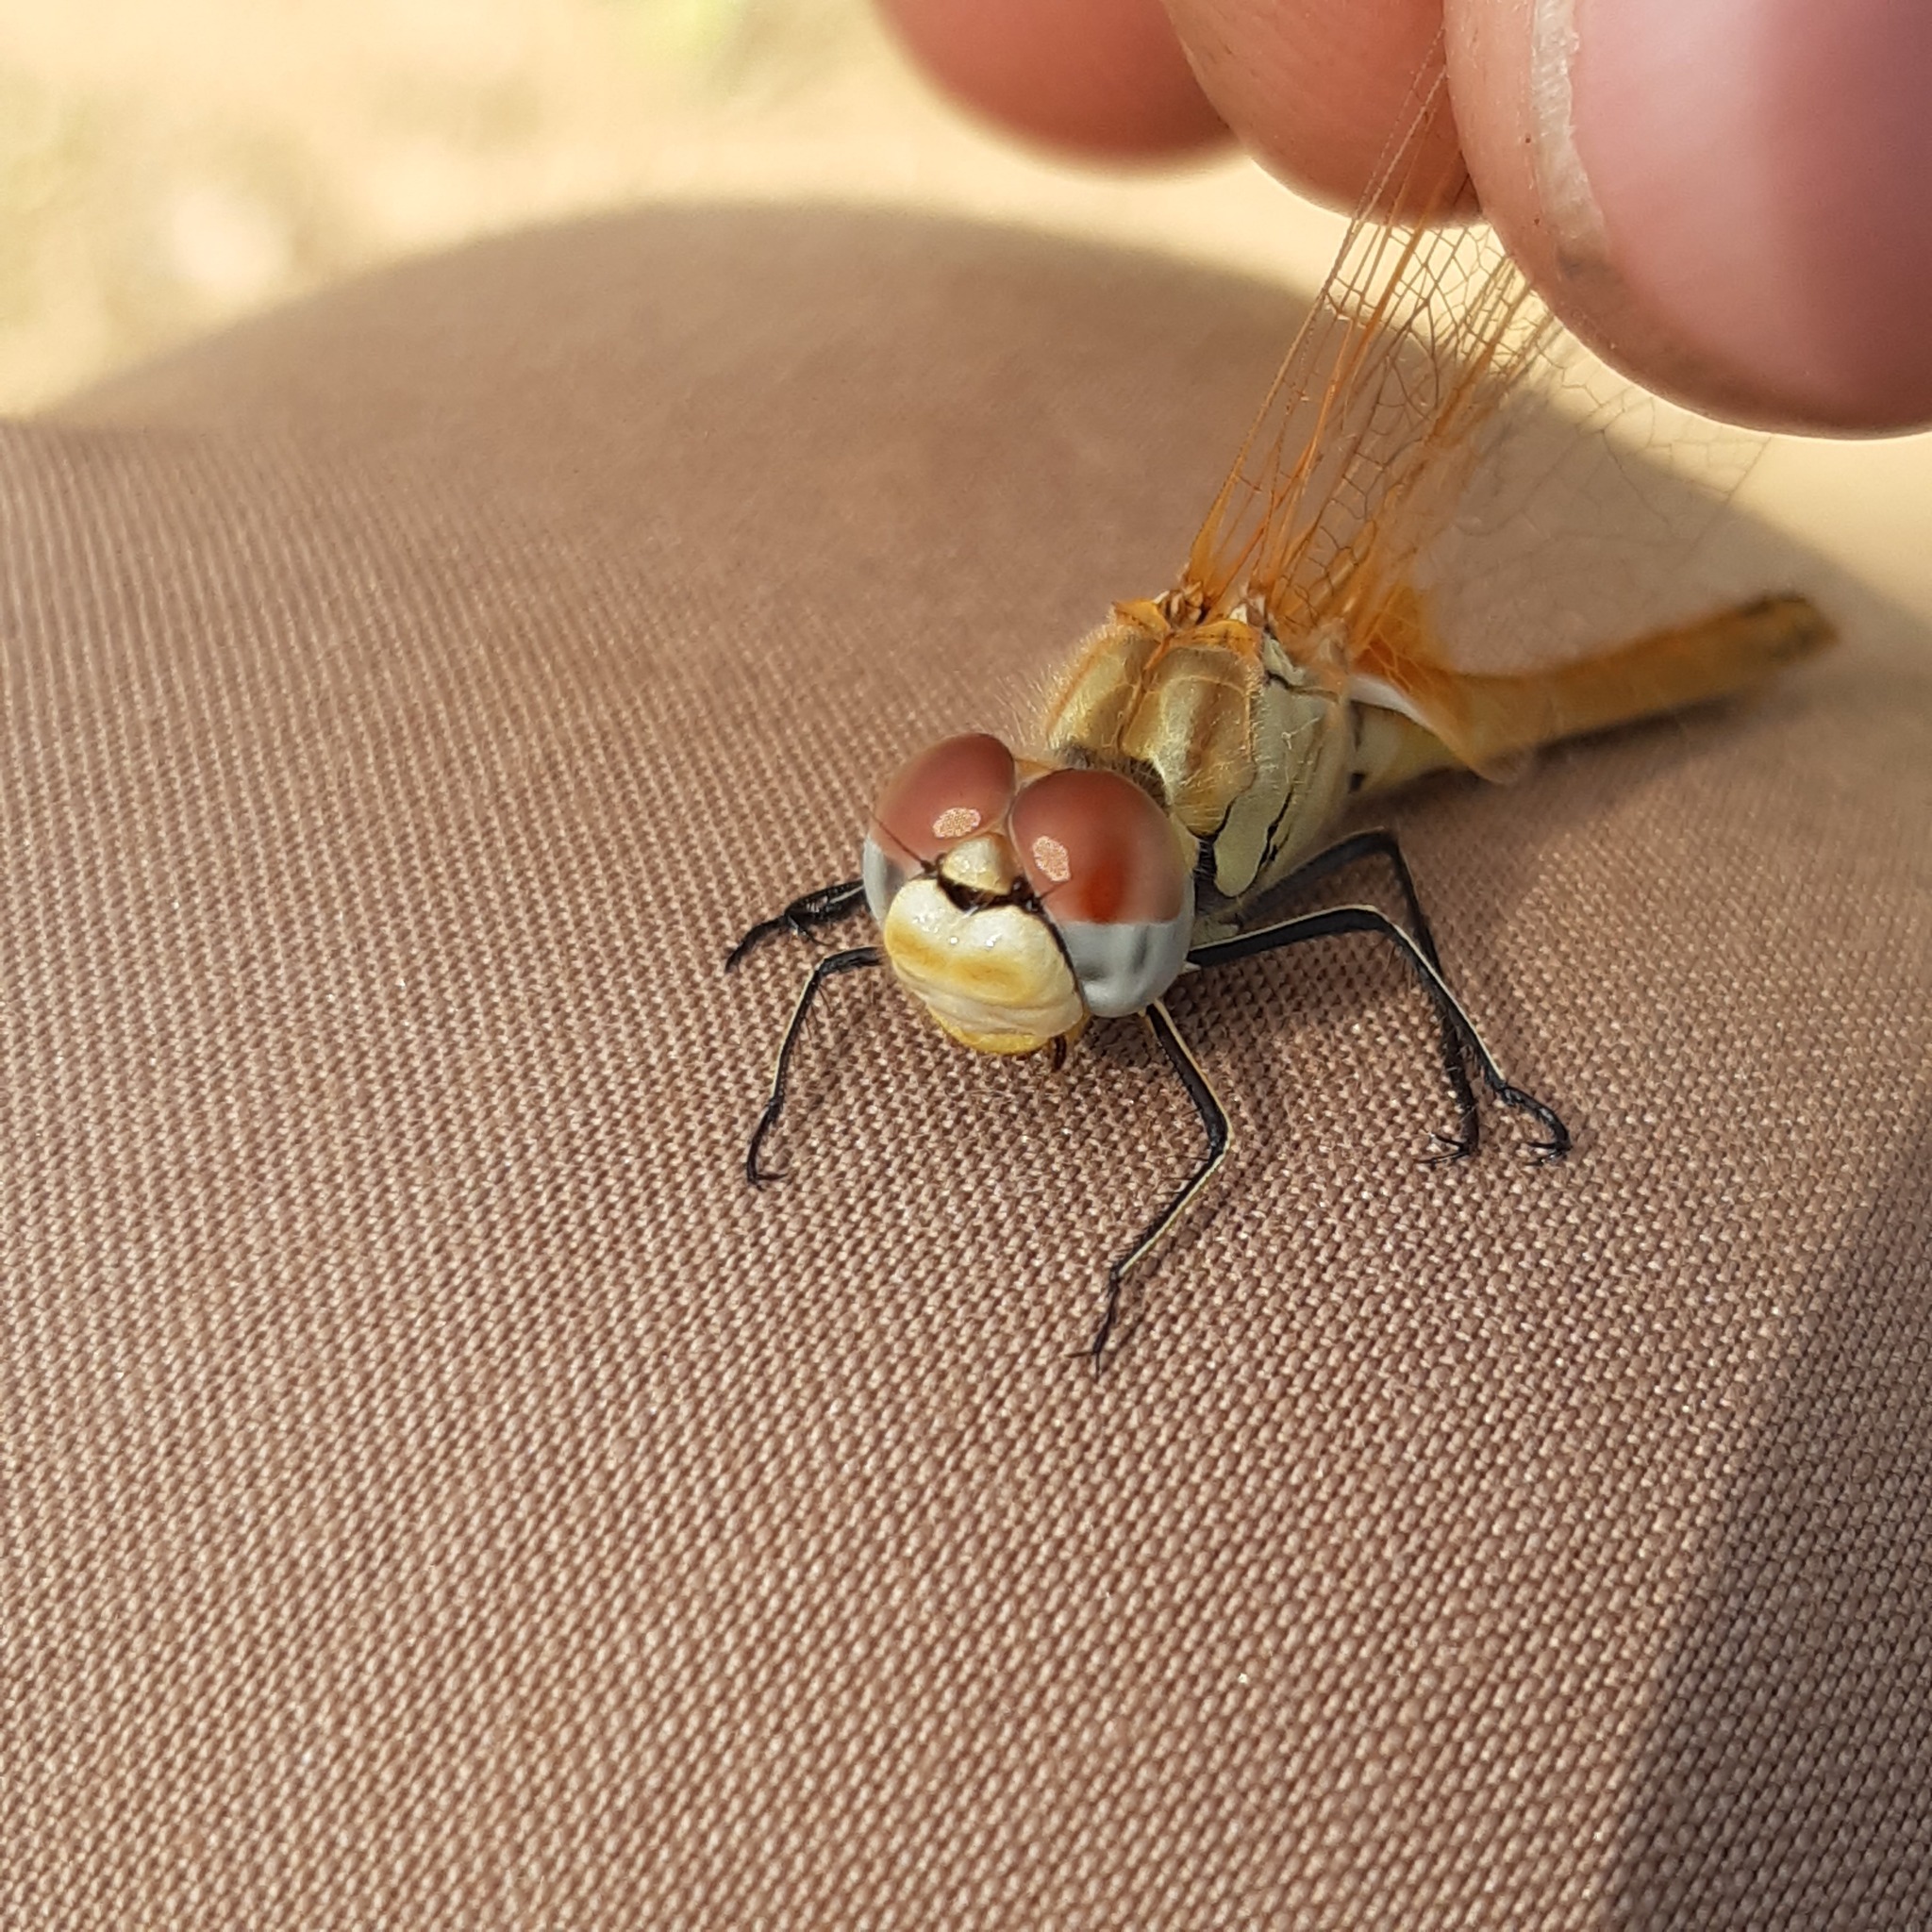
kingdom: Animalia
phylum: Arthropoda
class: Insecta
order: Odonata
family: Libellulidae
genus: Sympetrum
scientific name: Sympetrum fonscolombii
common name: Red-veined darter
